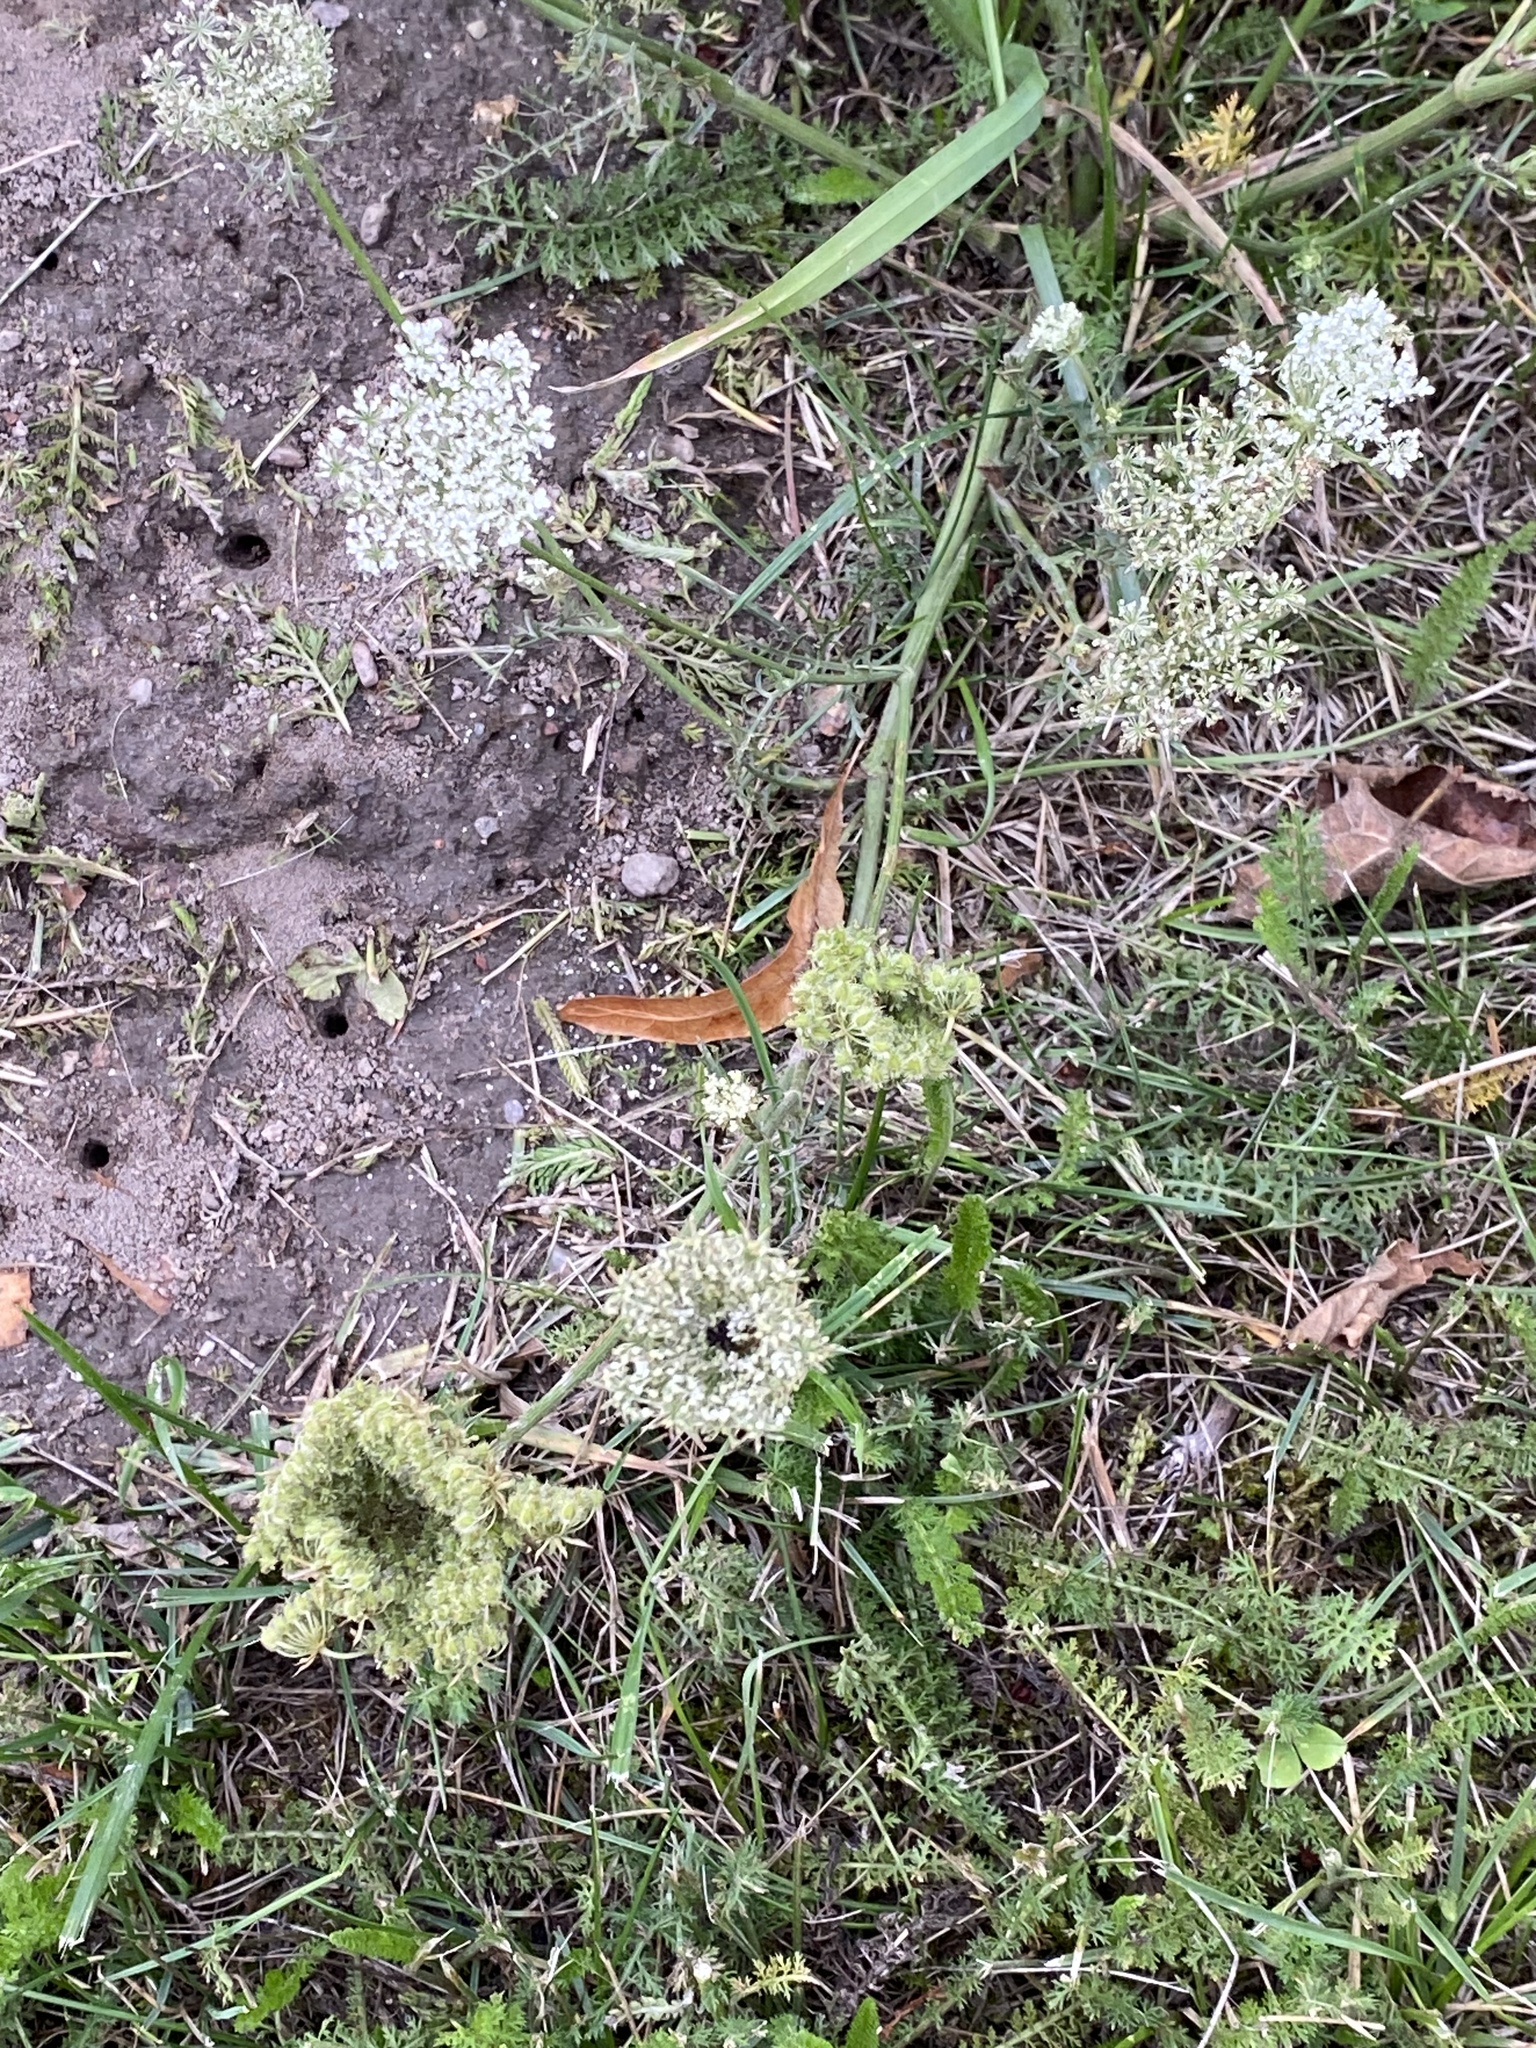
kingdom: Plantae
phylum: Tracheophyta
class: Magnoliopsida
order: Apiales
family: Apiaceae
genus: Daucus
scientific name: Daucus carota
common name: Wild carrot
